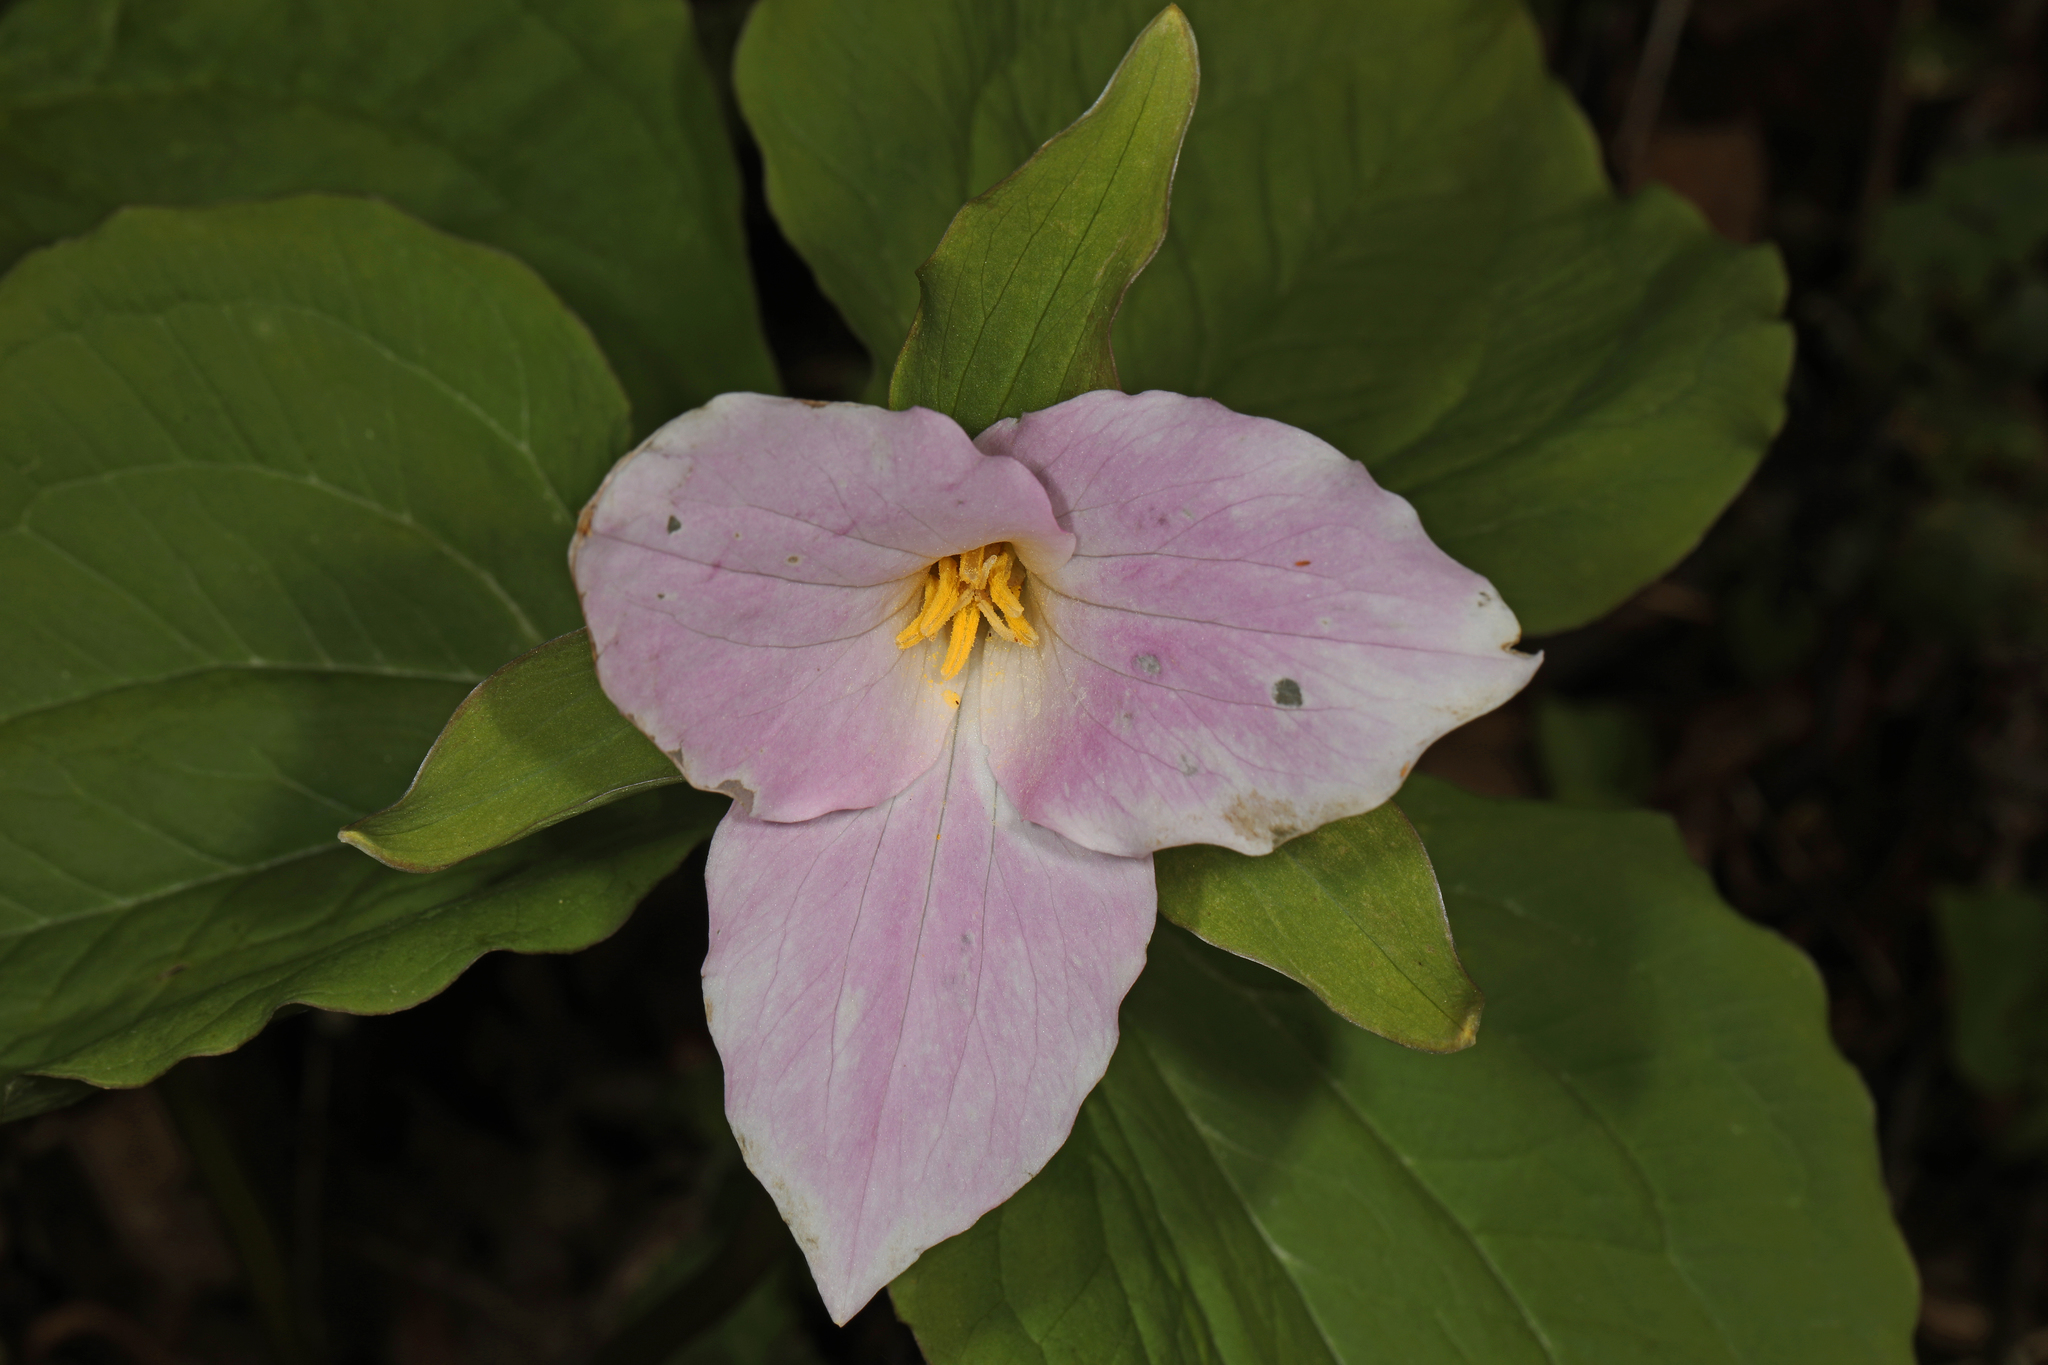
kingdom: Plantae
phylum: Tracheophyta
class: Liliopsida
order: Liliales
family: Melanthiaceae
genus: Trillium
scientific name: Trillium grandiflorum
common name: Great white trillium
